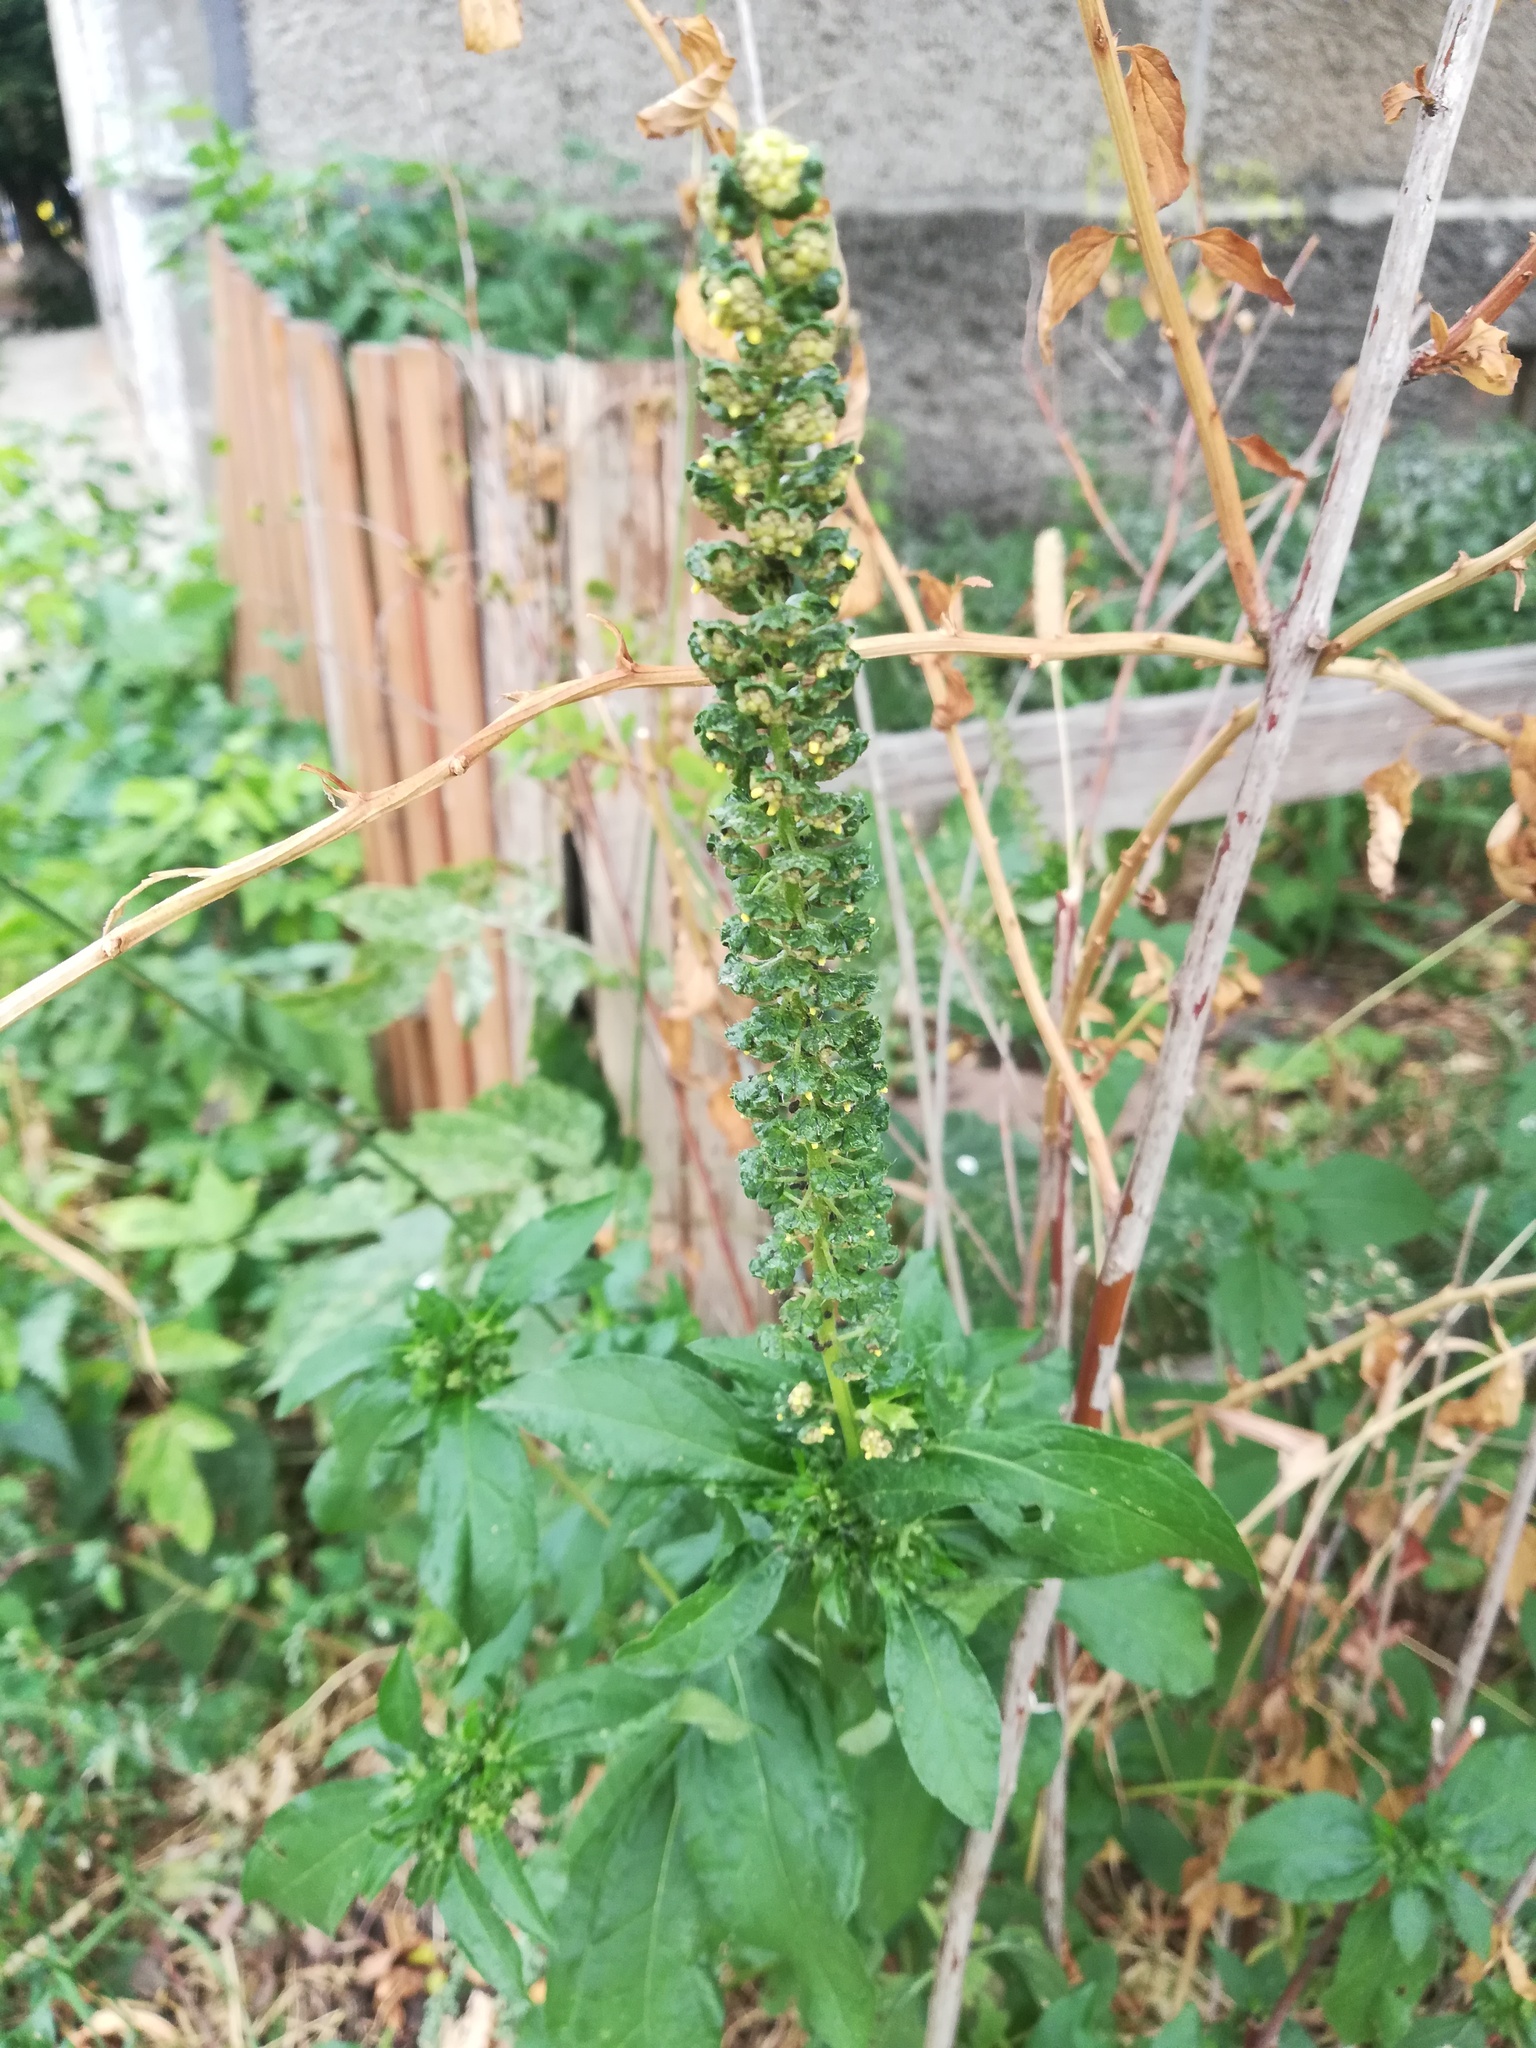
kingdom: Plantae
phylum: Tracheophyta
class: Magnoliopsida
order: Asterales
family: Asteraceae
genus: Ambrosia
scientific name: Ambrosia trifida
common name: Giant ragweed
